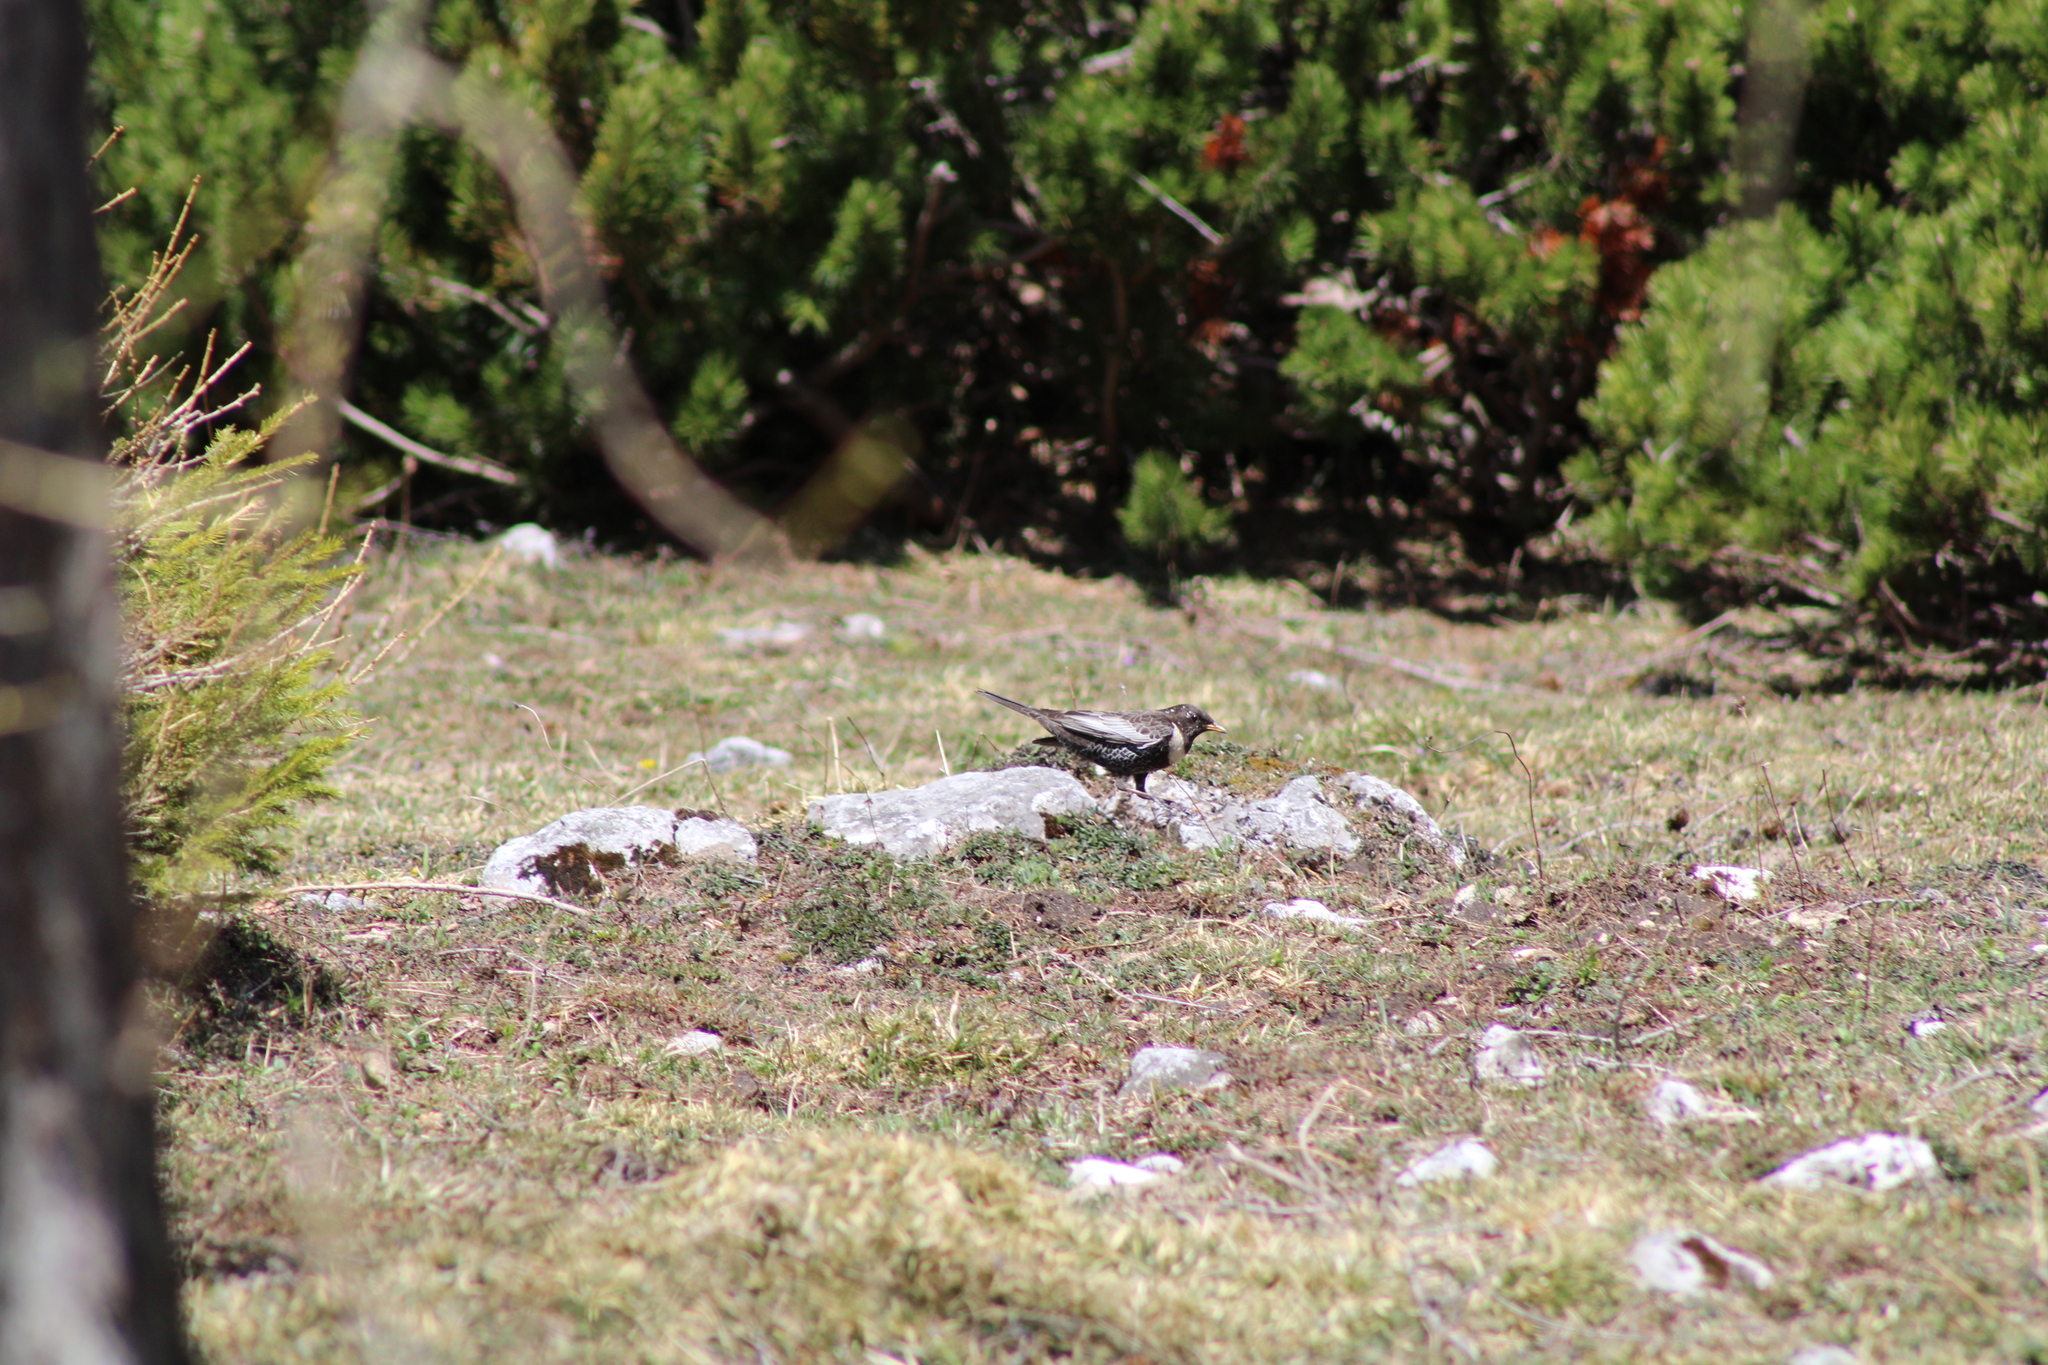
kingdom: Animalia
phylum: Chordata
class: Aves
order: Passeriformes
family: Turdidae
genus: Turdus
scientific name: Turdus torquatus
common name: Ring ouzel
